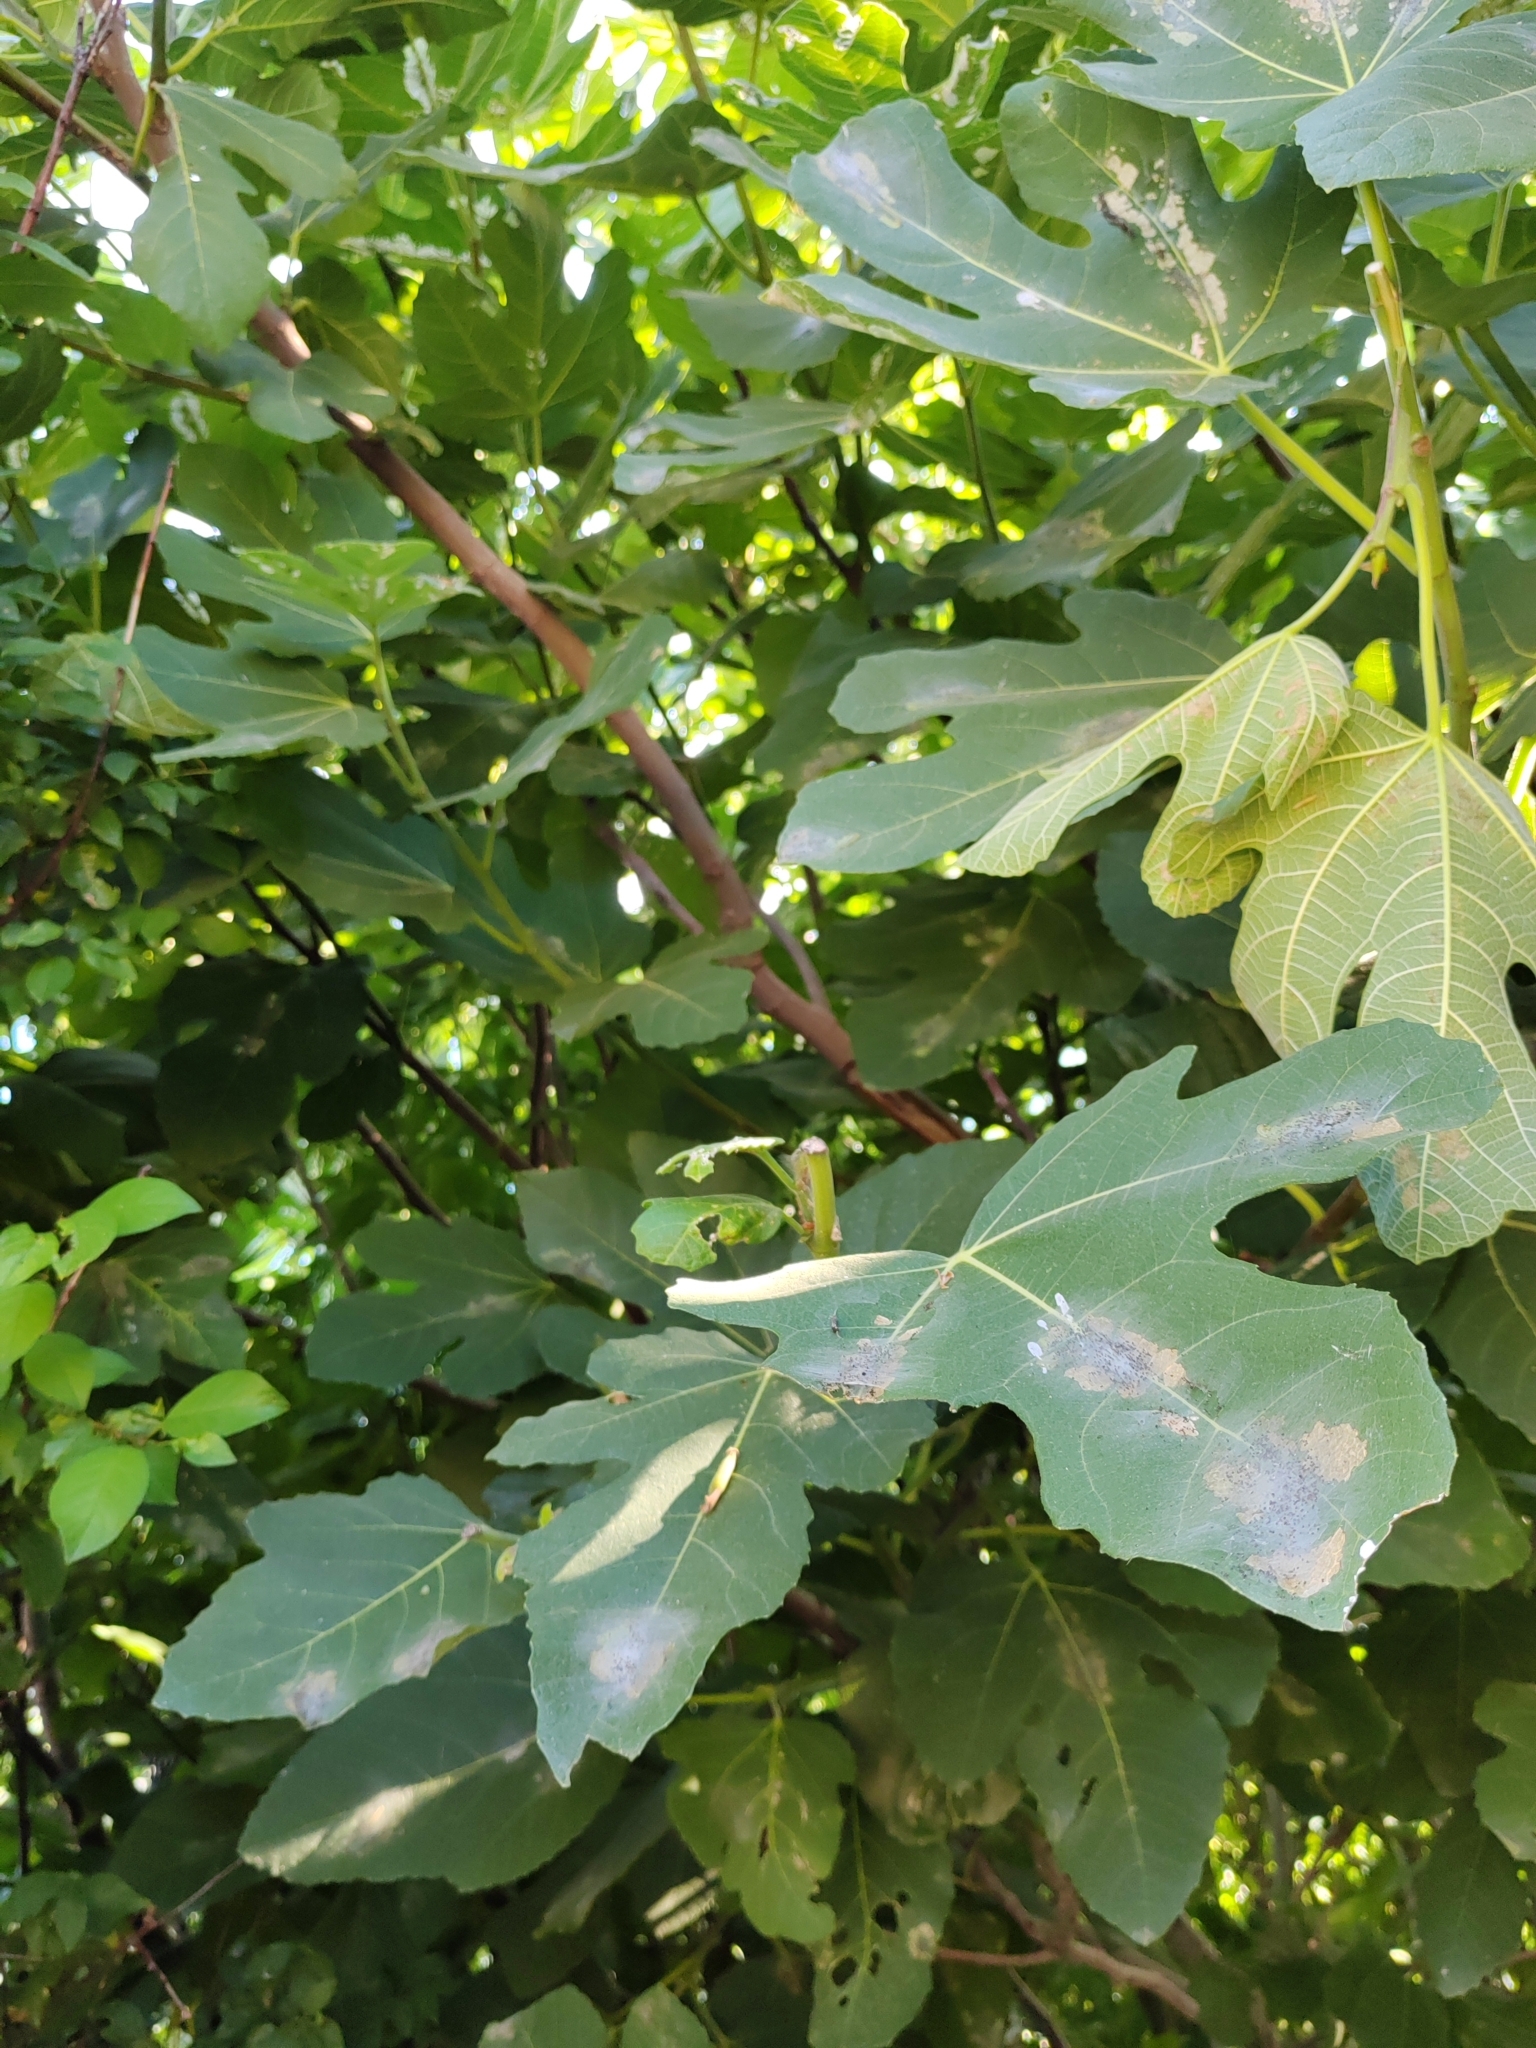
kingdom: Plantae
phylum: Tracheophyta
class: Magnoliopsida
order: Rosales
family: Moraceae
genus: Ficus
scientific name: Ficus carica
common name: Fig
